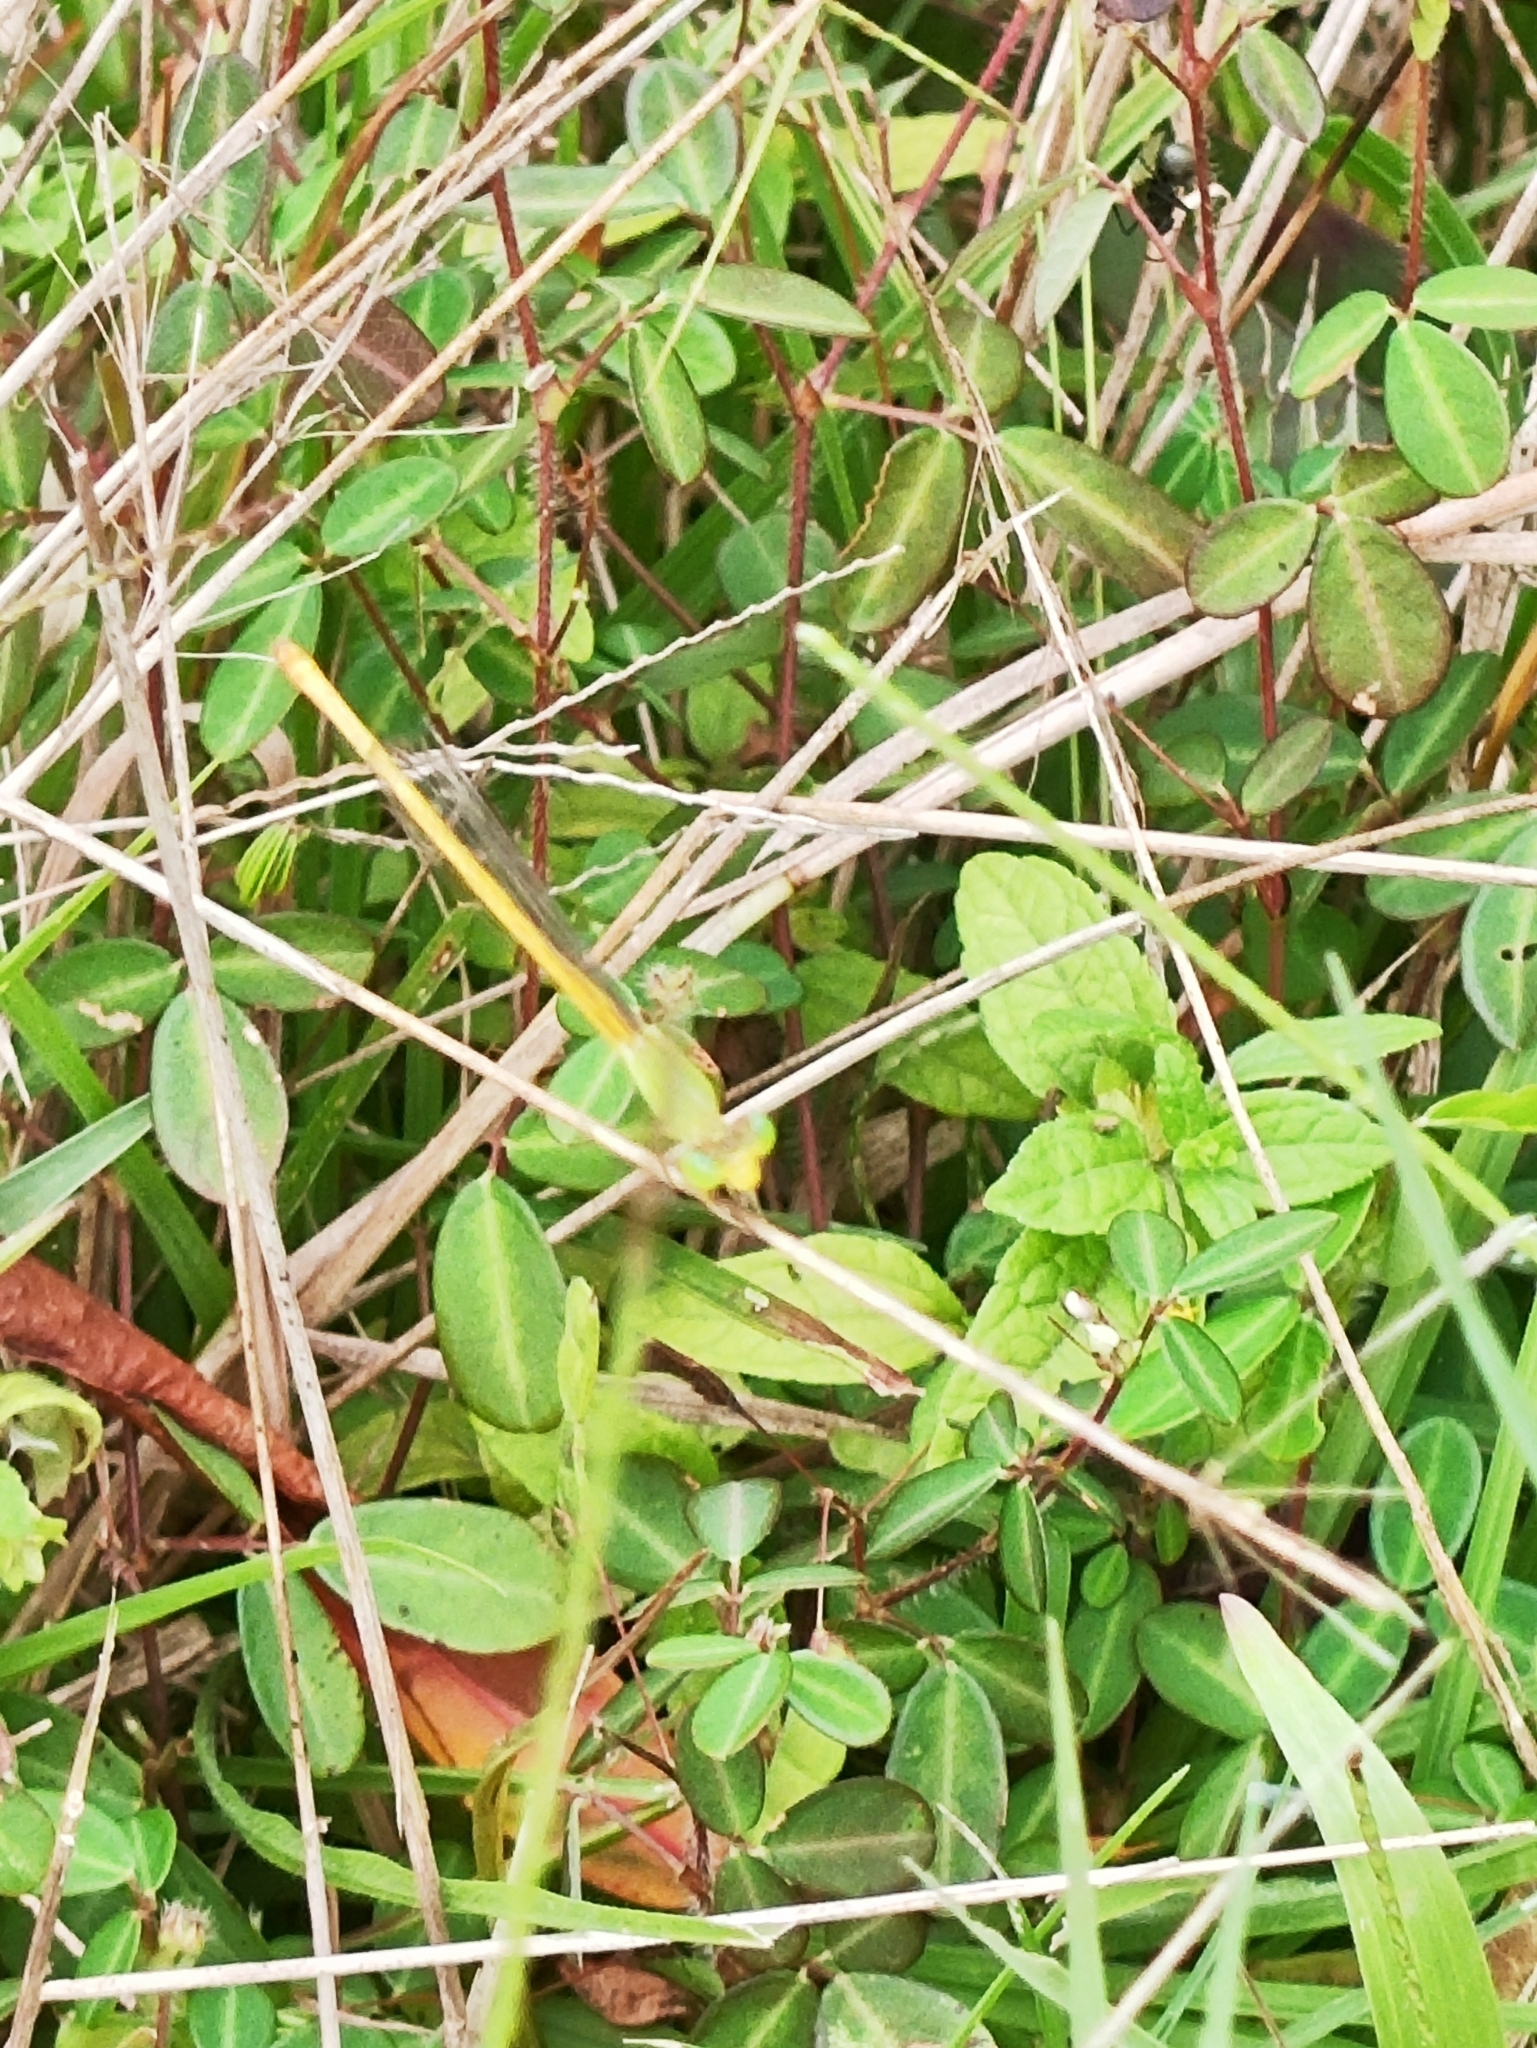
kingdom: Animalia
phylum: Arthropoda
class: Insecta
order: Odonata
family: Coenagrionidae
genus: Ceriagrion
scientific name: Ceriagrion coromandelianum
